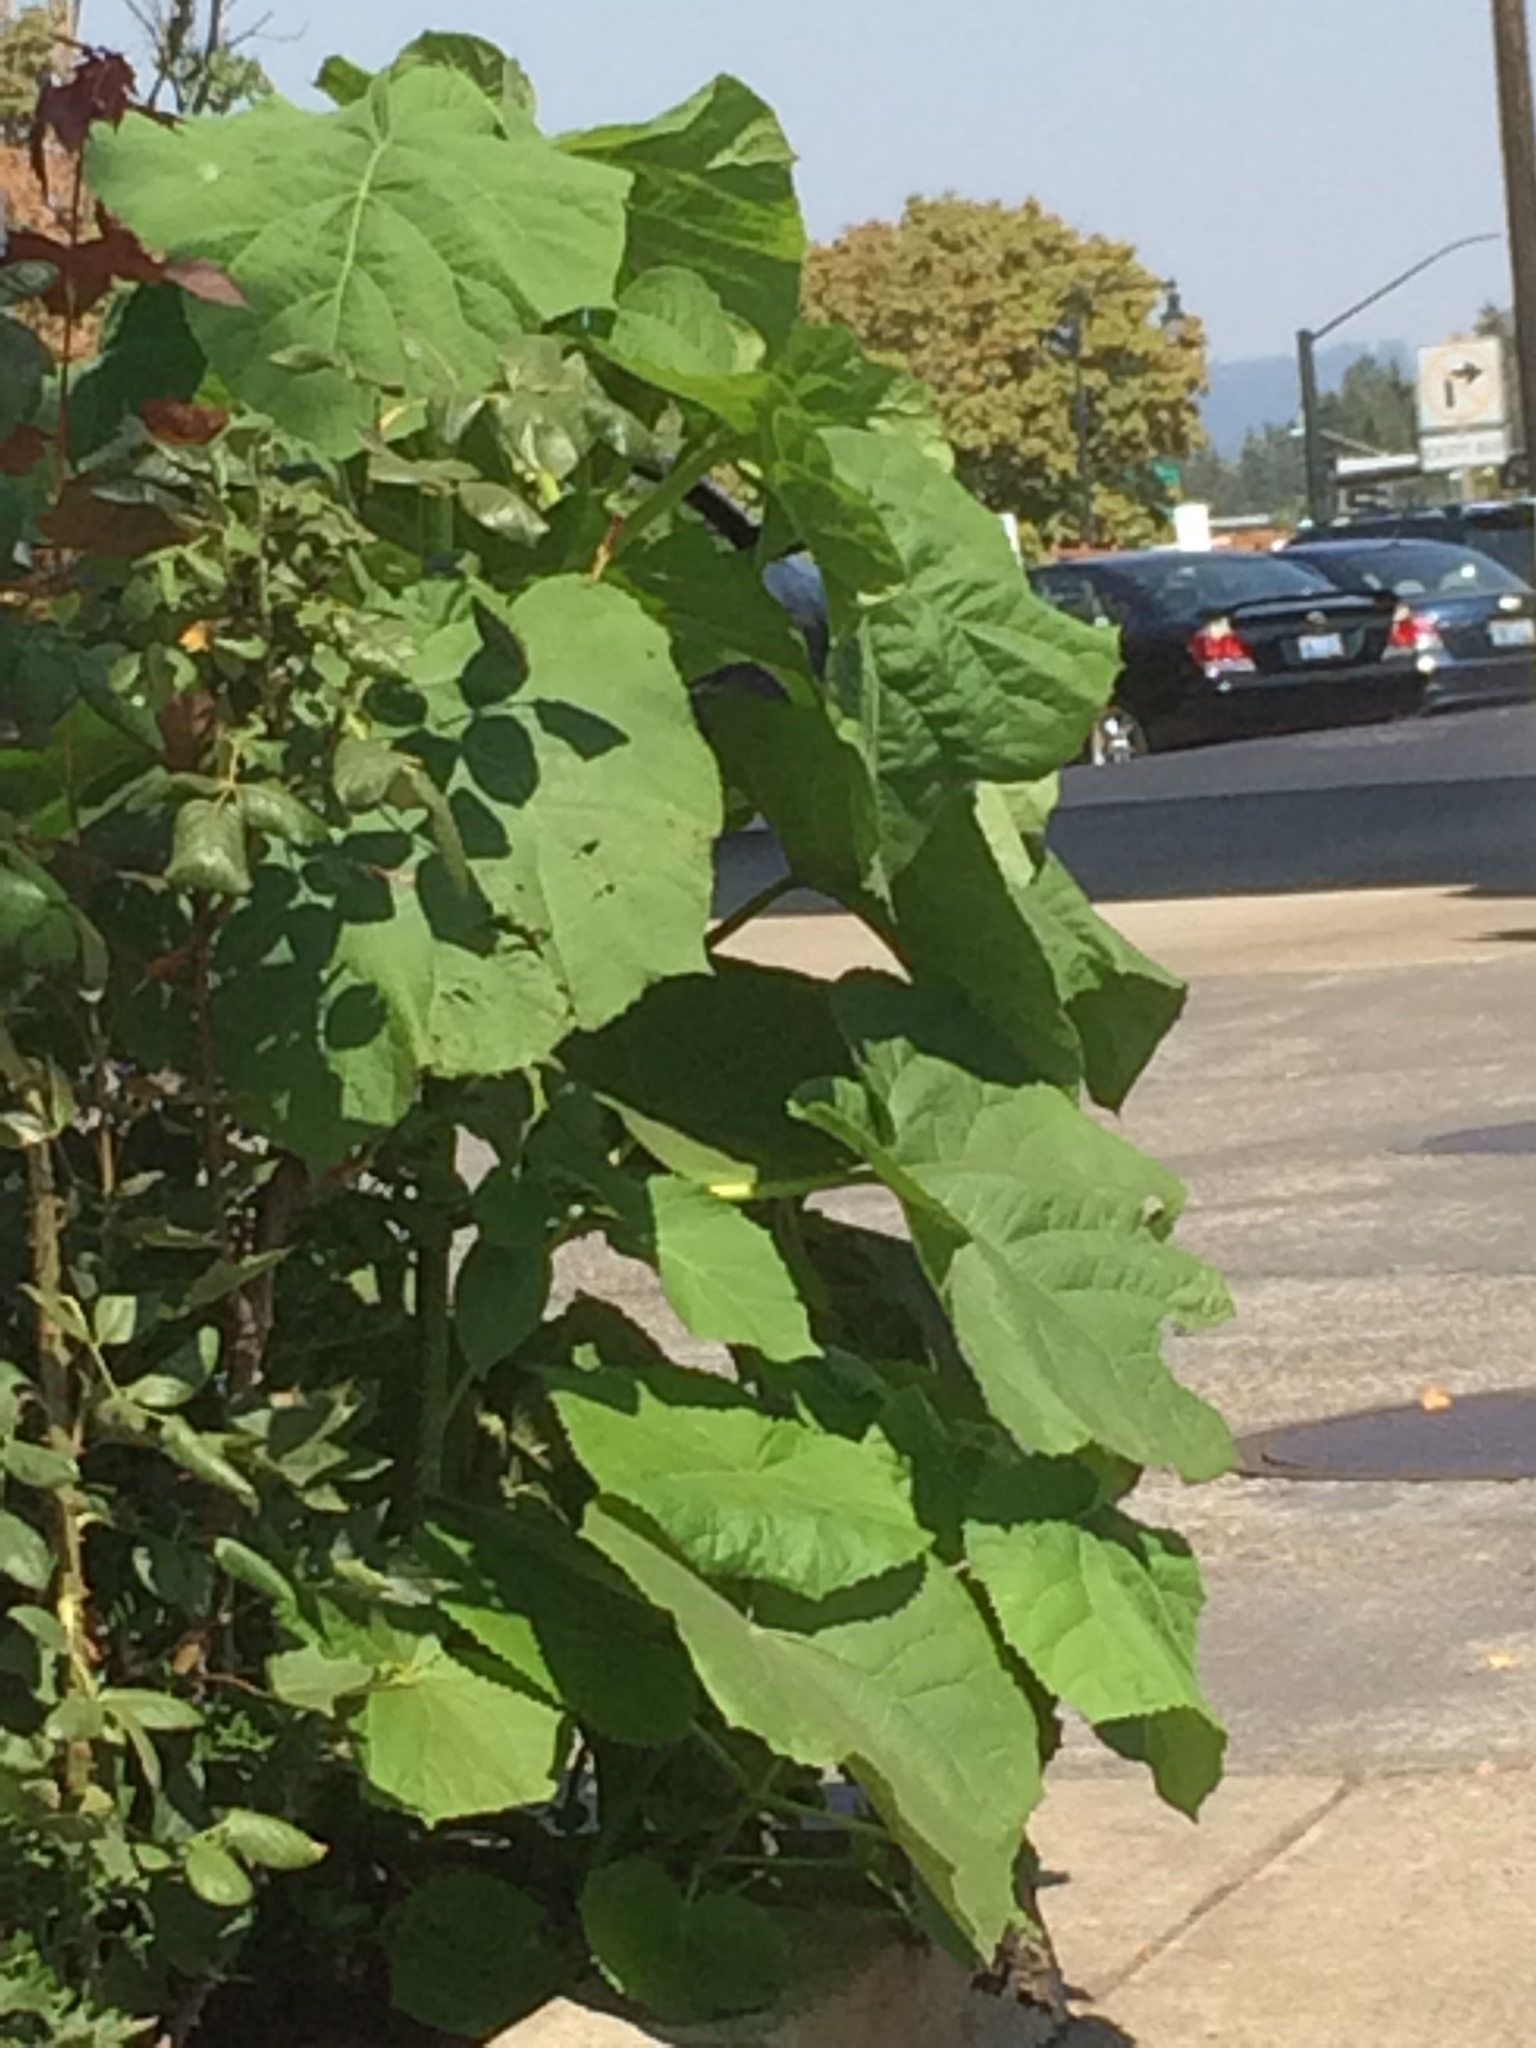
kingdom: Plantae
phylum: Tracheophyta
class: Magnoliopsida
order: Lamiales
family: Paulowniaceae
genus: Paulownia
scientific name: Paulownia tomentosa
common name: Foxglove-tree
